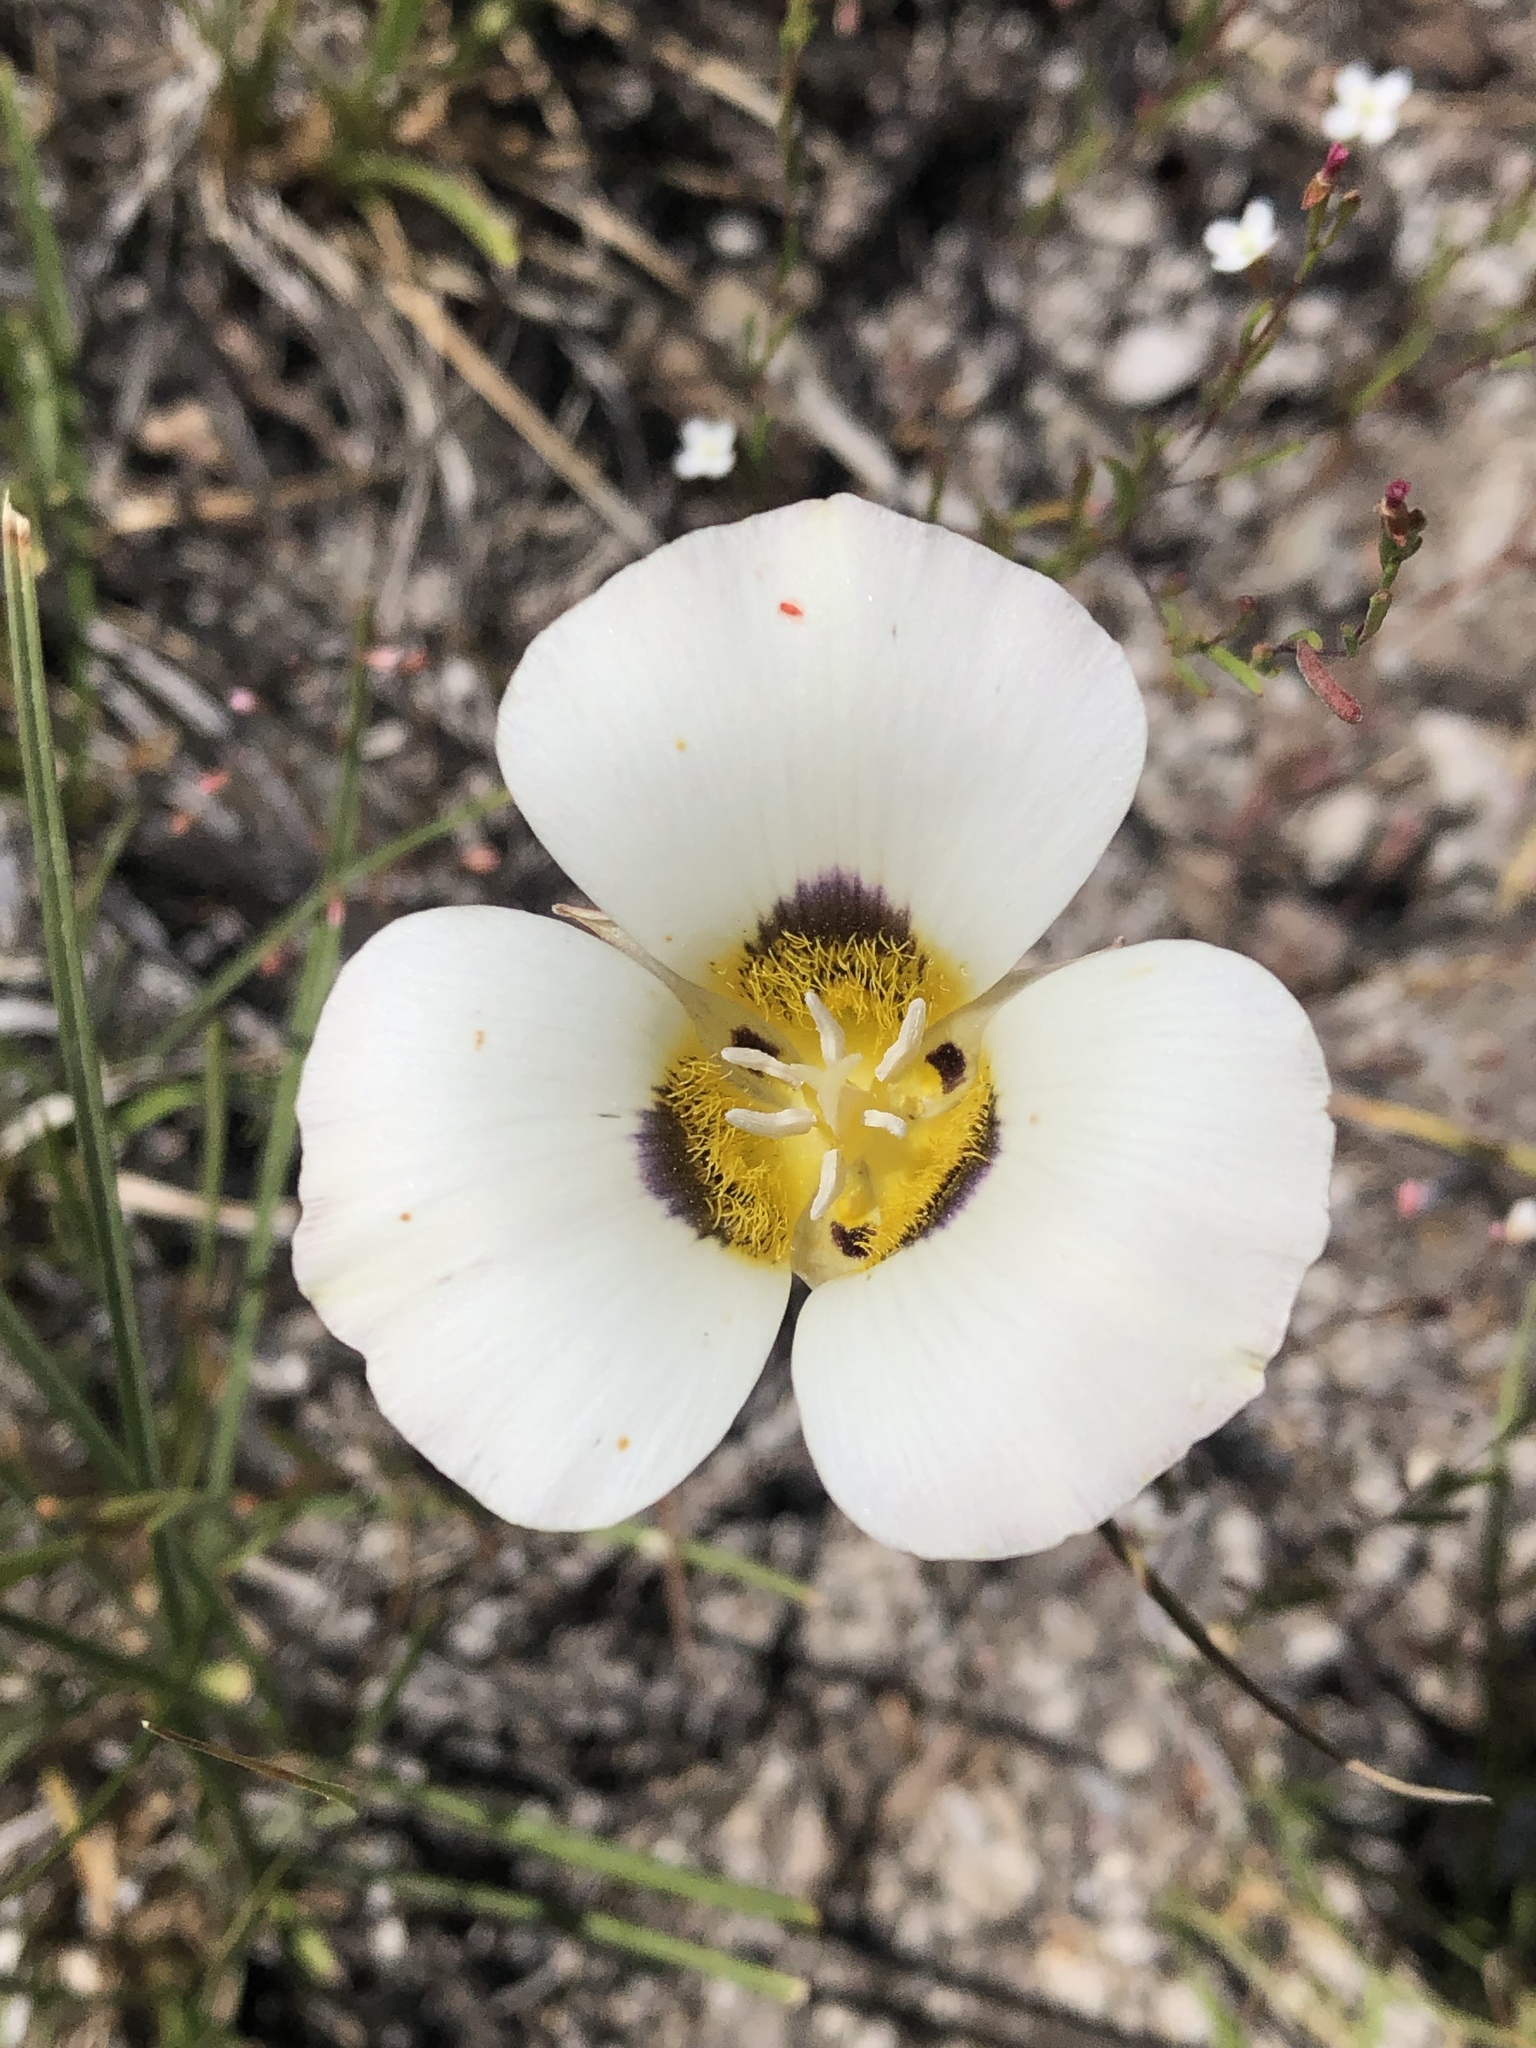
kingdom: Plantae
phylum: Tracheophyta
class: Liliopsida
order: Liliales
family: Liliaceae
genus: Calochortus
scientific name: Calochortus leichtlinii
